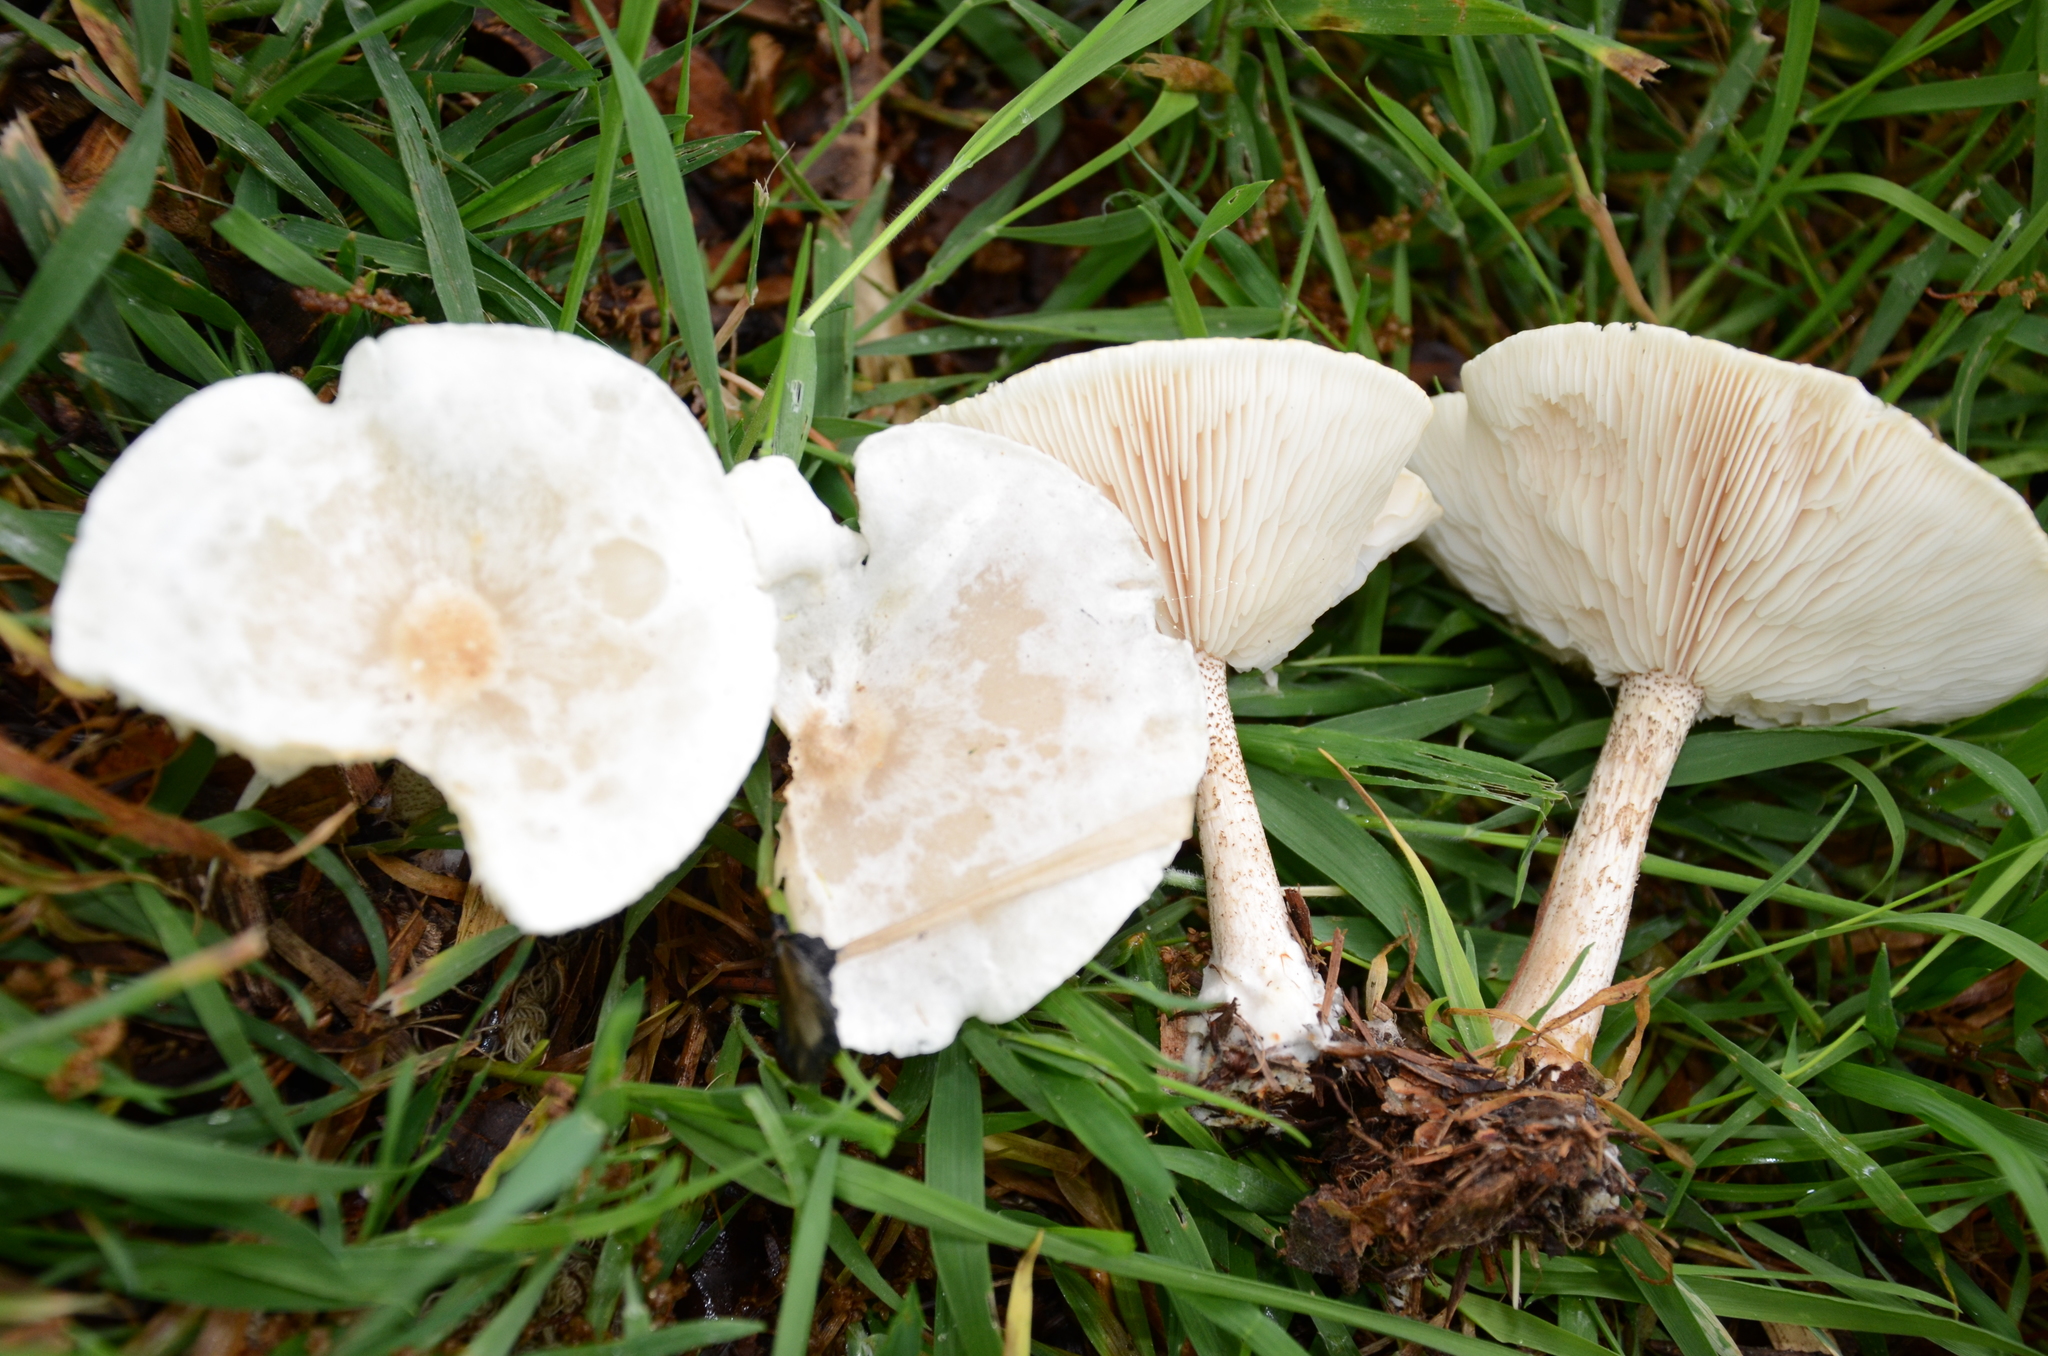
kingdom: Fungi
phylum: Basidiomycota
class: Agaricomycetes
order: Agaricales
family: Tricholomataceae
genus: Melanoleuca
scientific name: Melanoleuca verrucipes
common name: Warty cavalier
